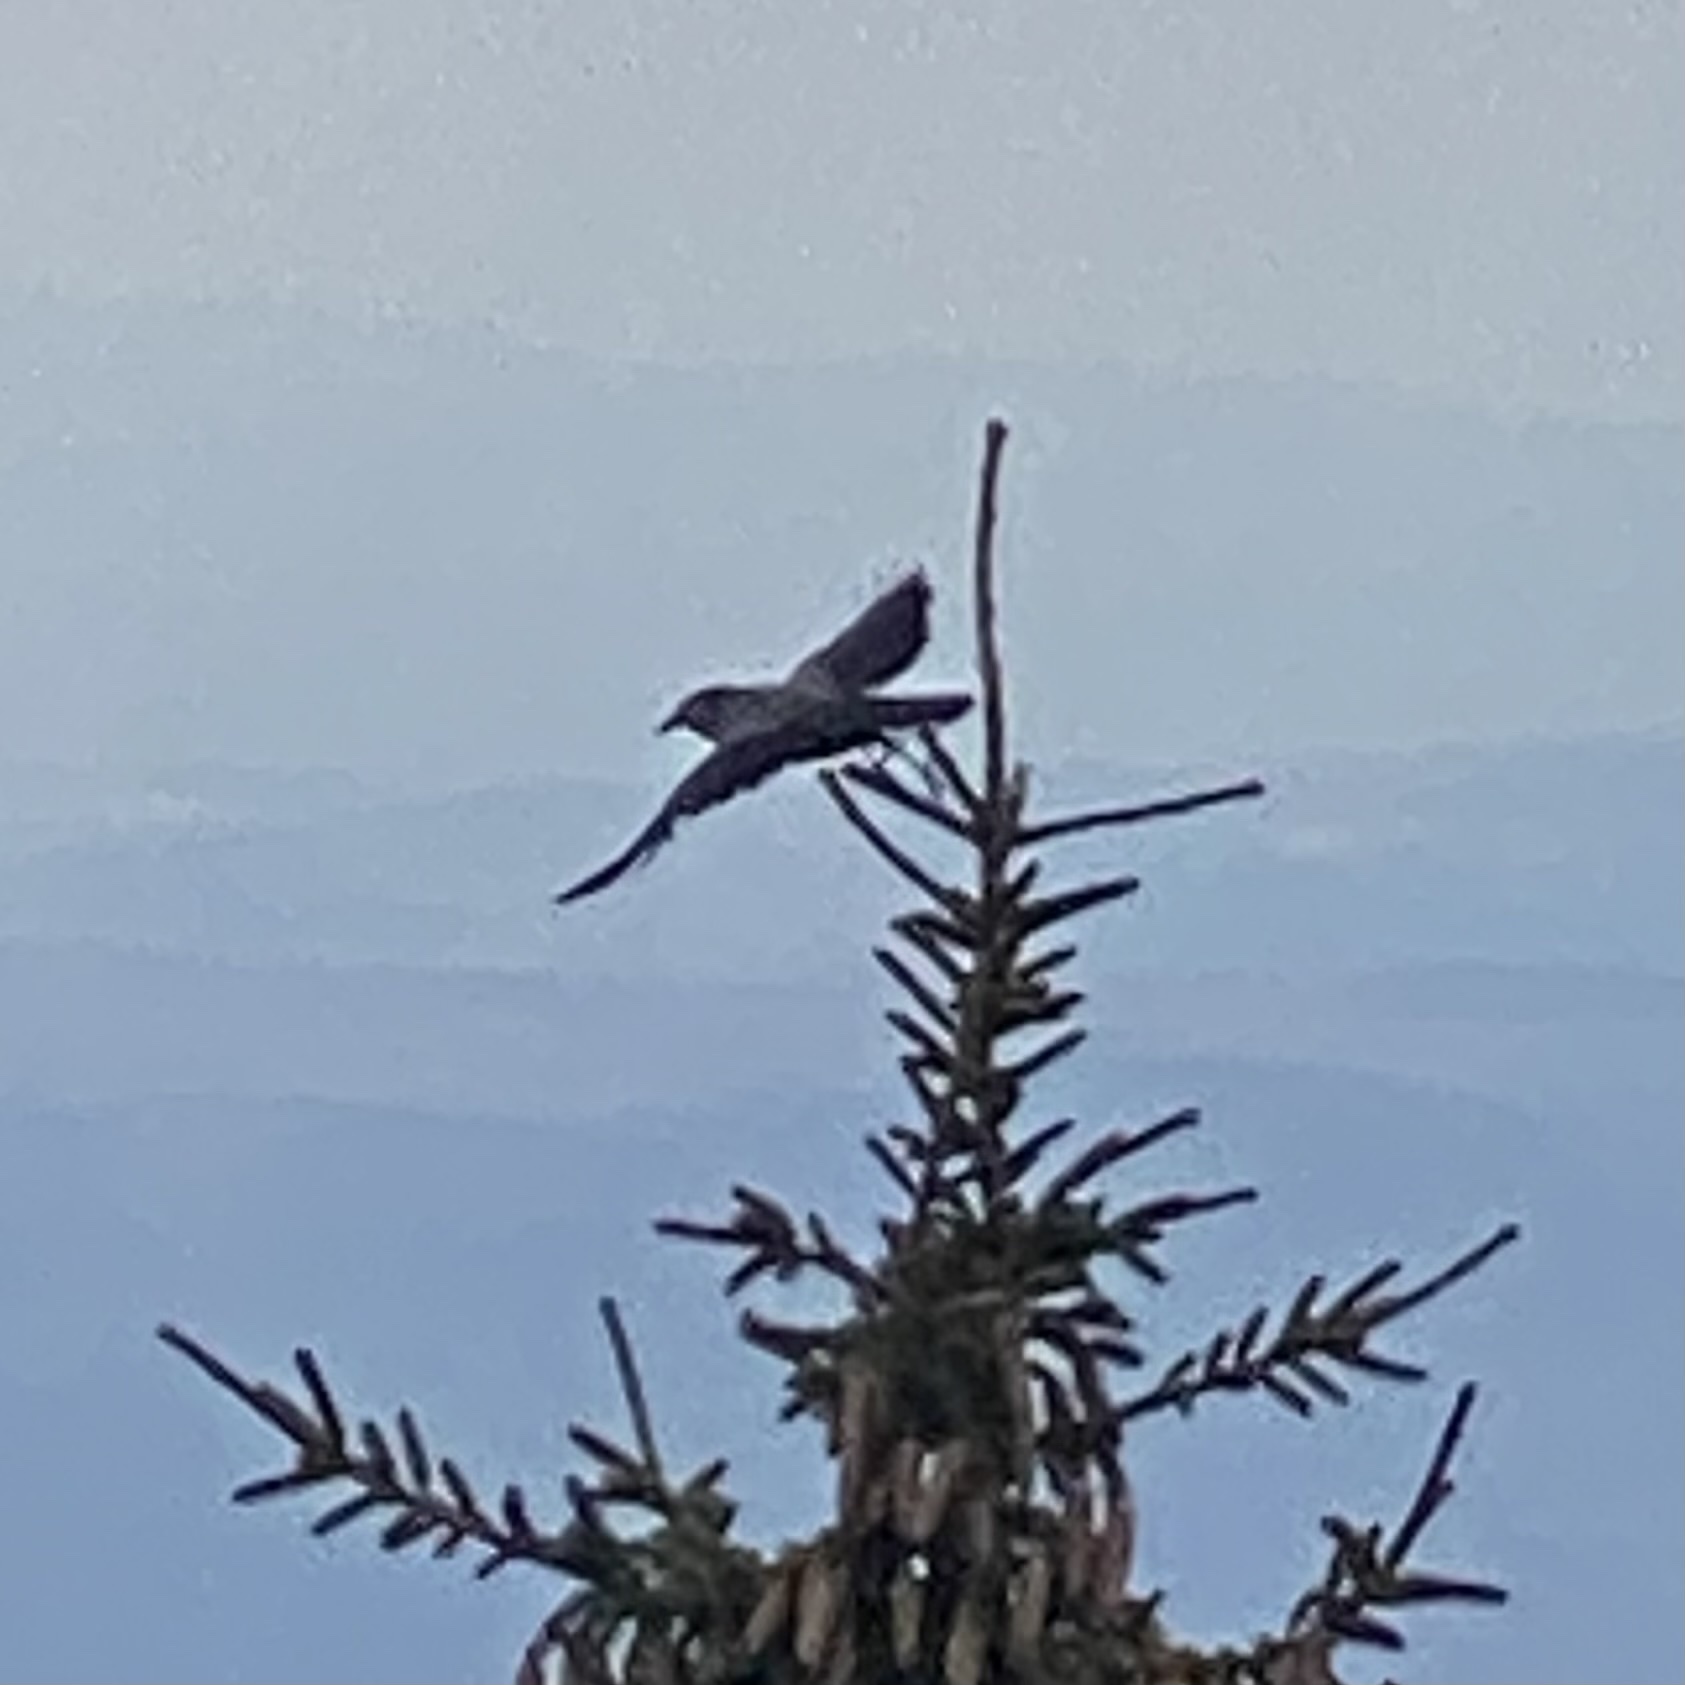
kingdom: Animalia
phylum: Chordata
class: Aves
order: Passeriformes
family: Corvidae
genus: Nucifraga
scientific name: Nucifraga caryocatactes
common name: Spotted nutcracker
